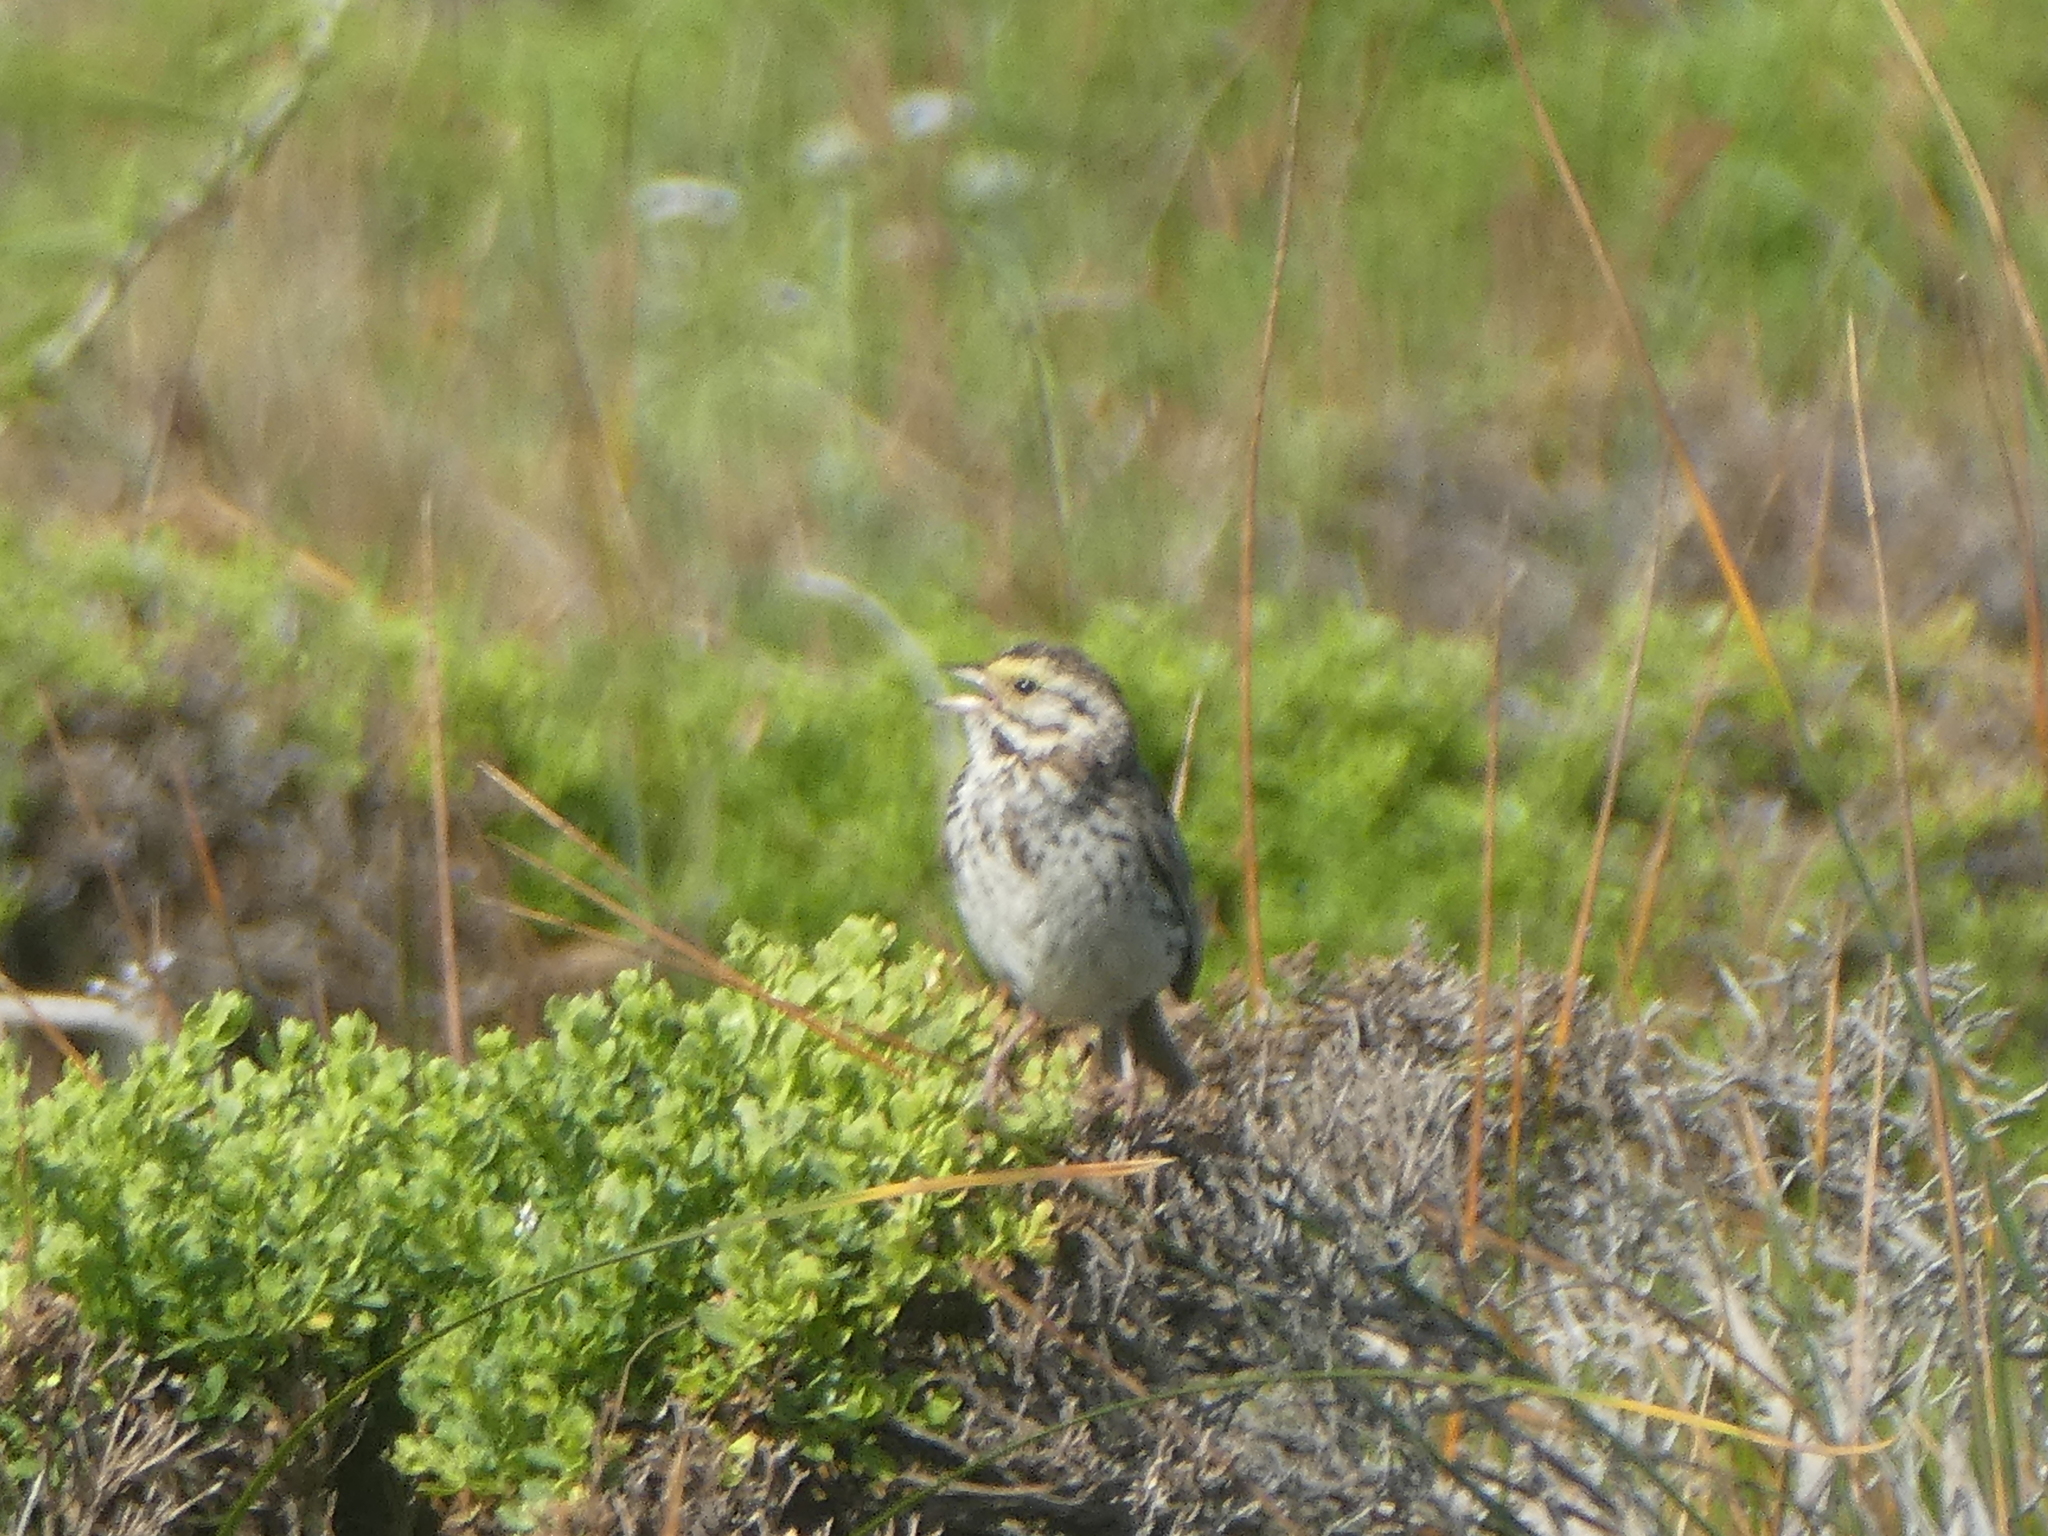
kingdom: Animalia
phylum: Chordata
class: Aves
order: Passeriformes
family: Passerellidae
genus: Passerculus
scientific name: Passerculus sandwichensis
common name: Savannah sparrow
